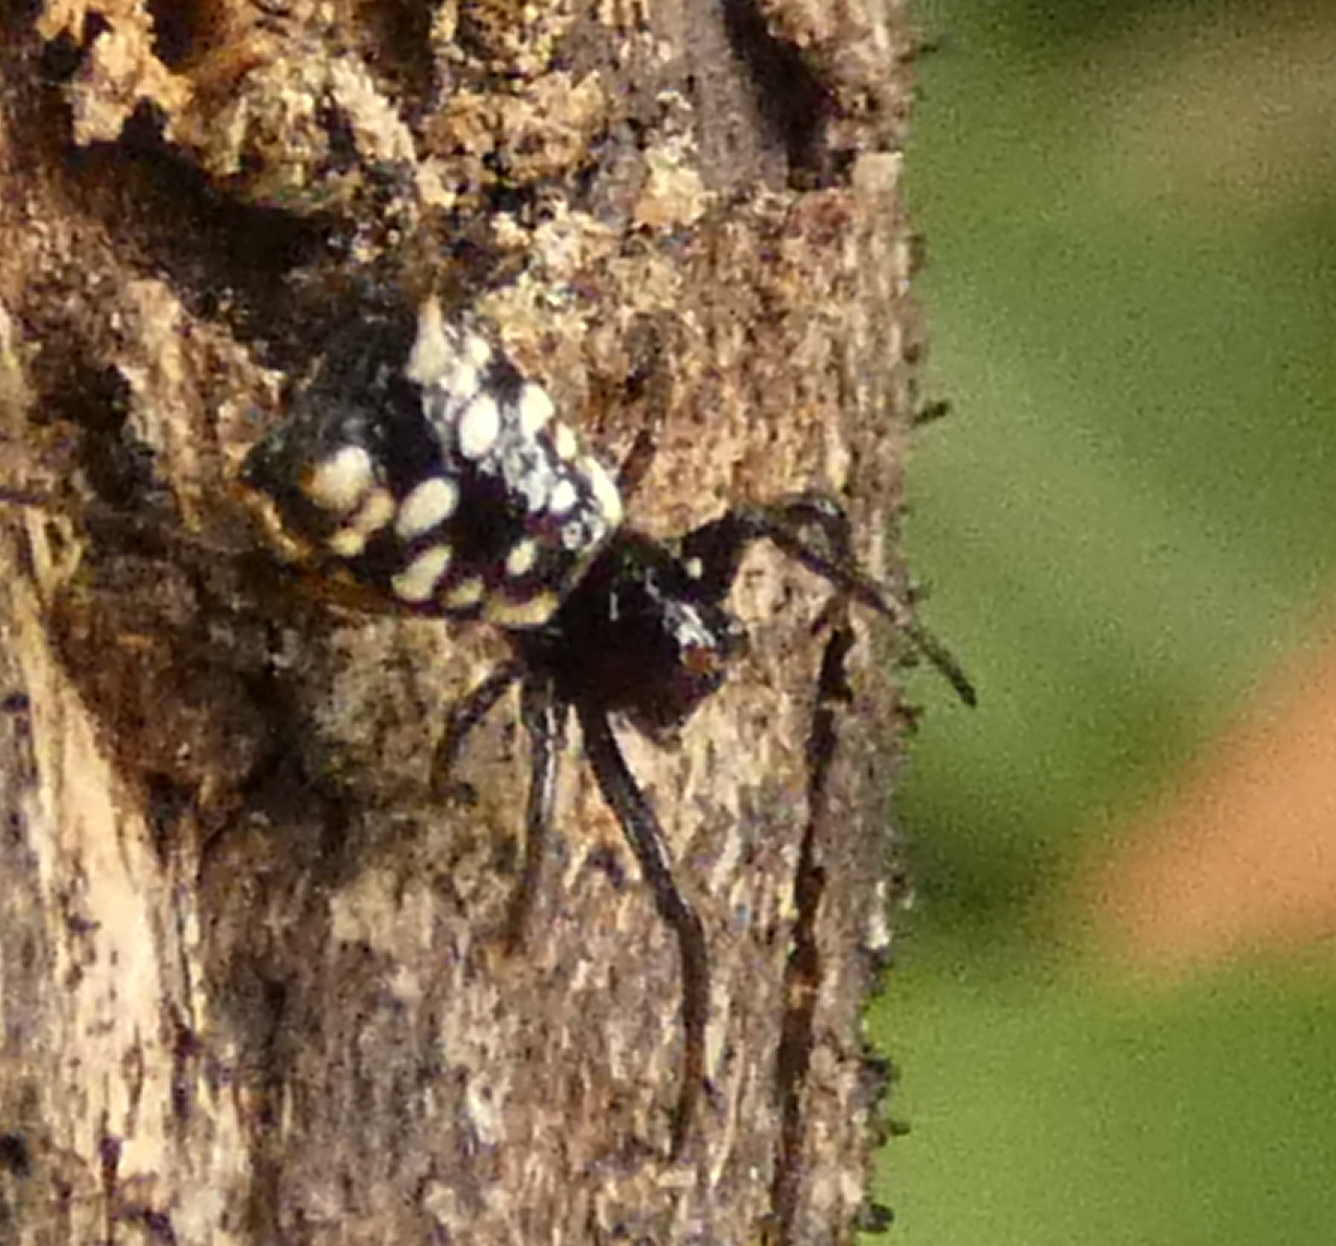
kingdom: Animalia
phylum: Arthropoda
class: Arachnida
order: Araneae
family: Araneidae
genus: Micrathena
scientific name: Micrathena patruelis
